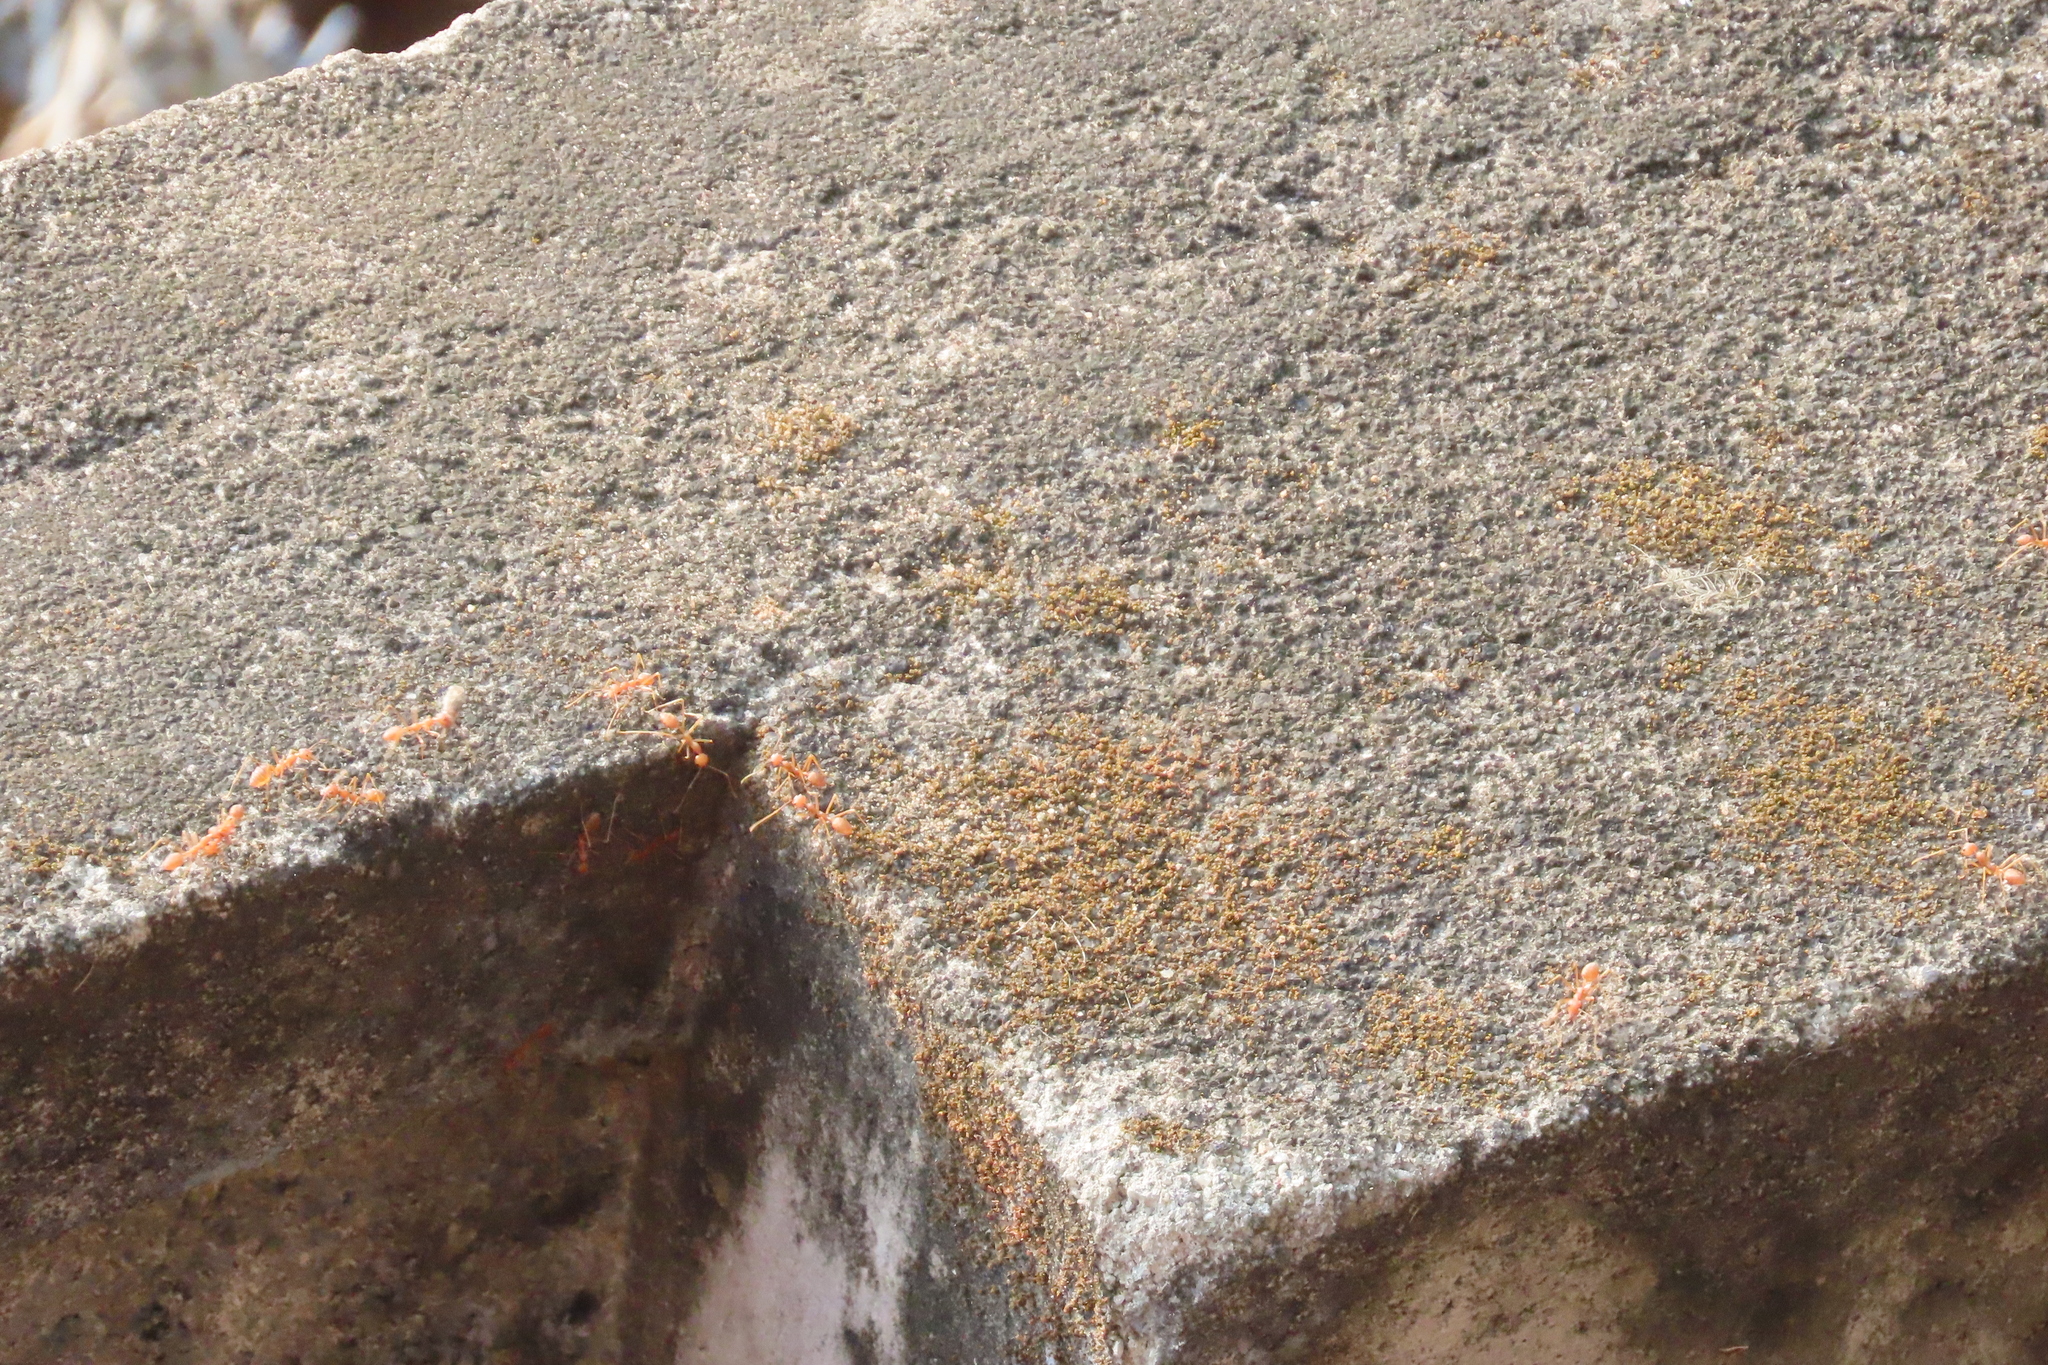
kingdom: Animalia
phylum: Arthropoda
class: Insecta
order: Hymenoptera
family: Formicidae
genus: Oecophylla
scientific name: Oecophylla smaragdina
